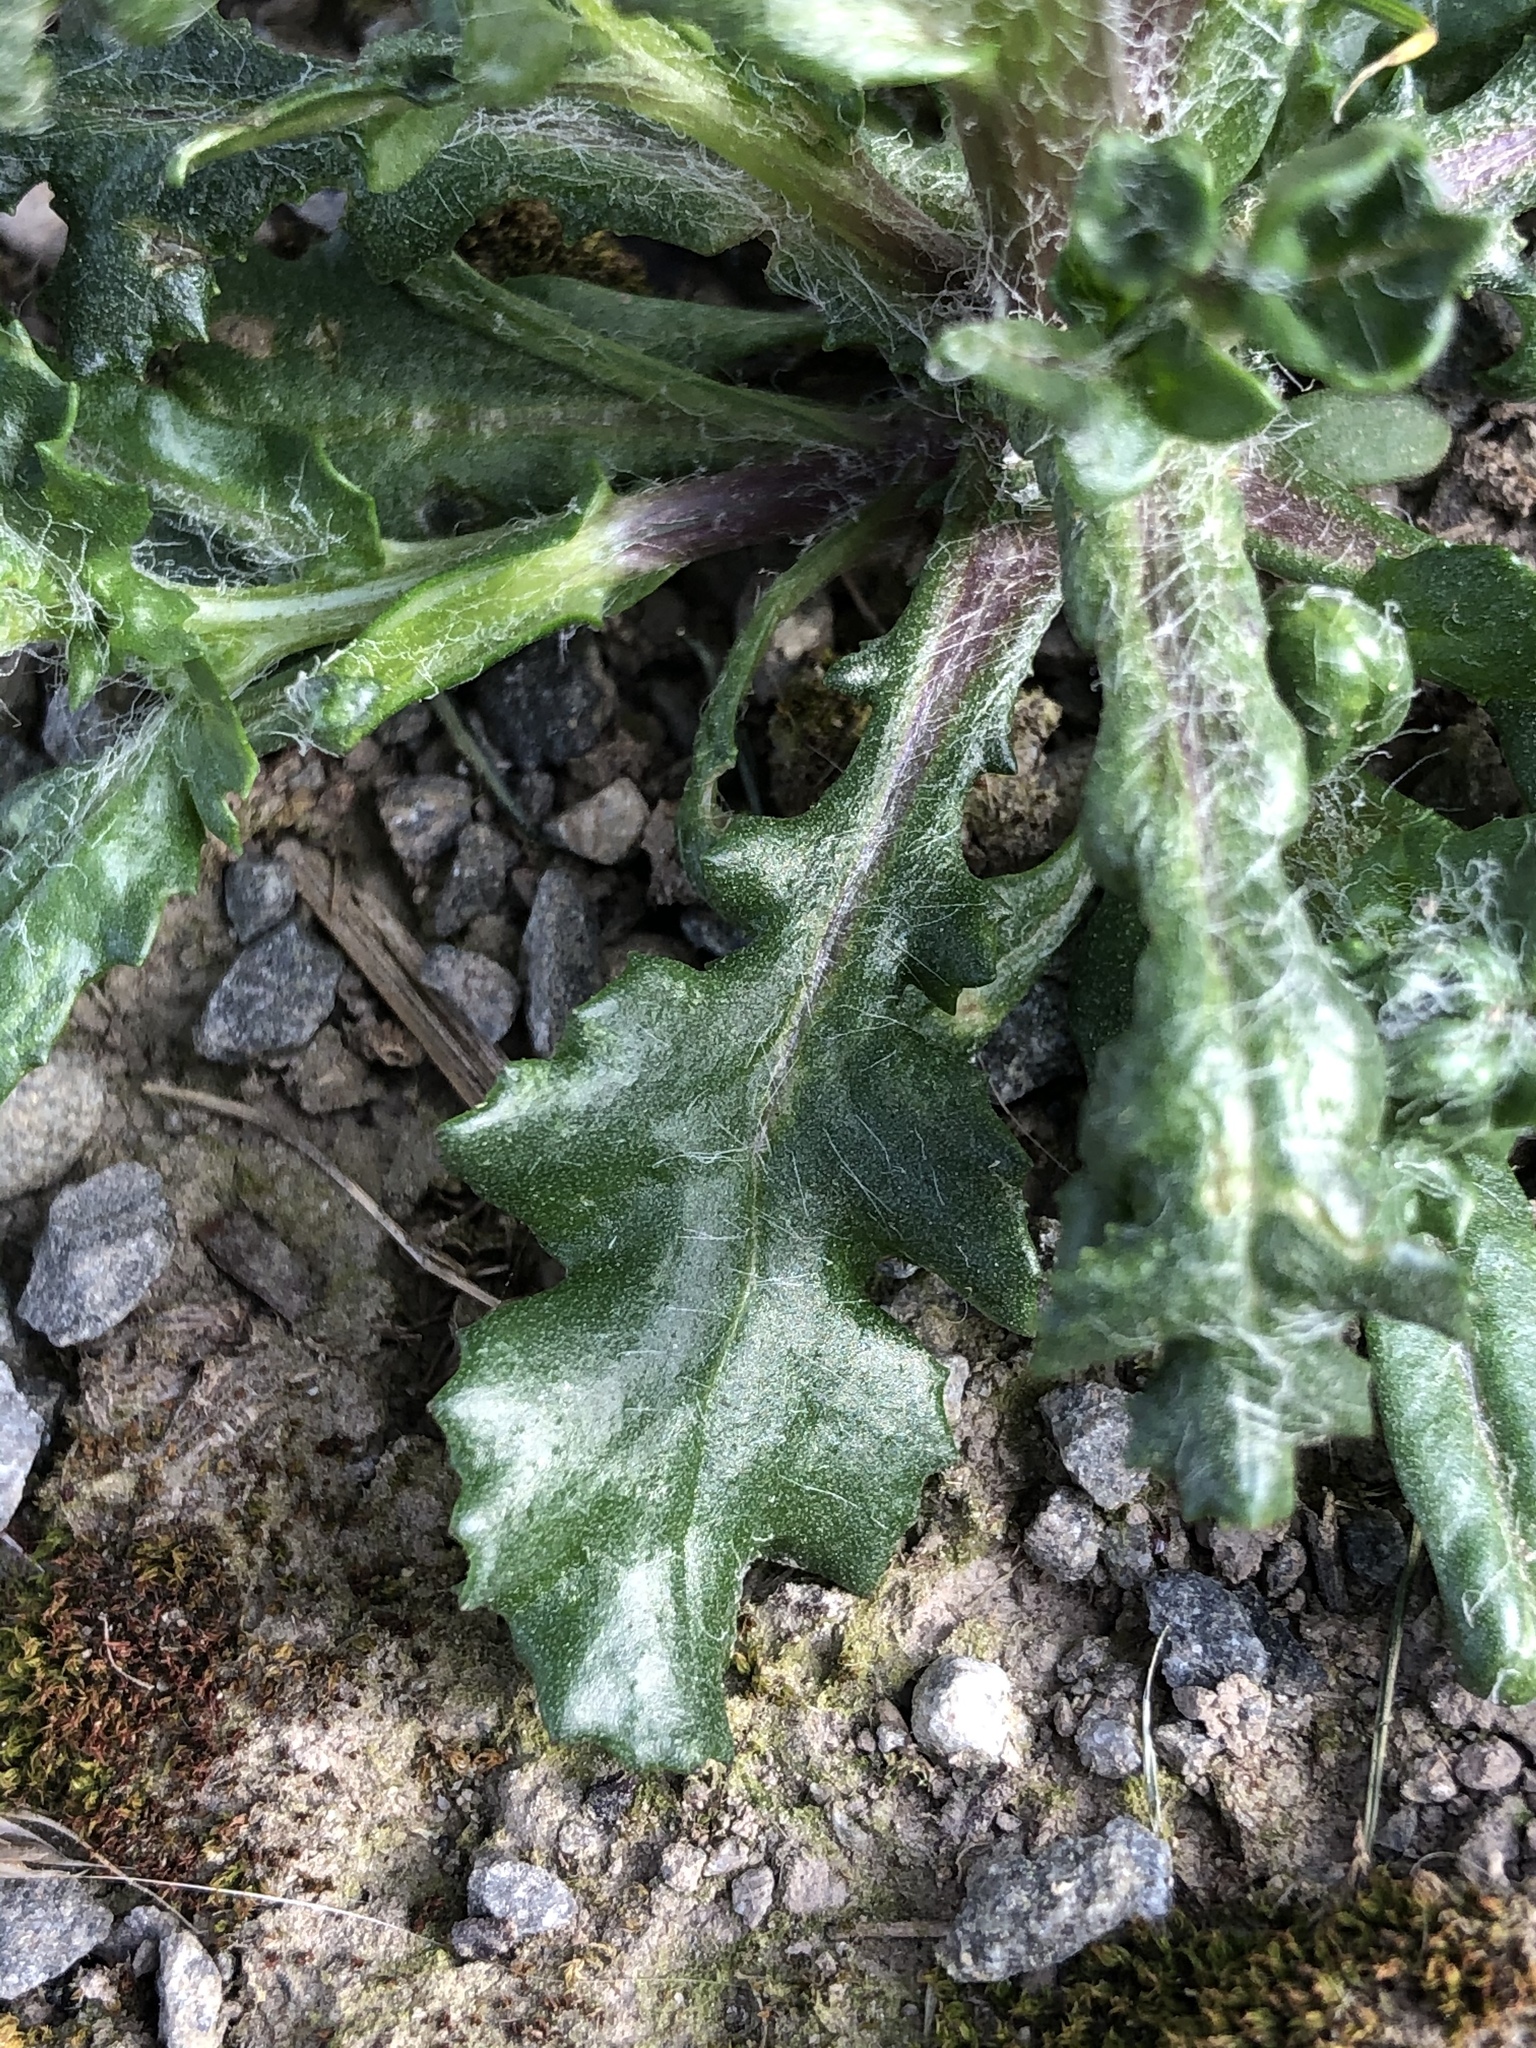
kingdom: Plantae
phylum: Tracheophyta
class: Magnoliopsida
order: Asterales
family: Asteraceae
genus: Senecio
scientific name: Senecio vulgaris
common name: Old-man-in-the-spring
